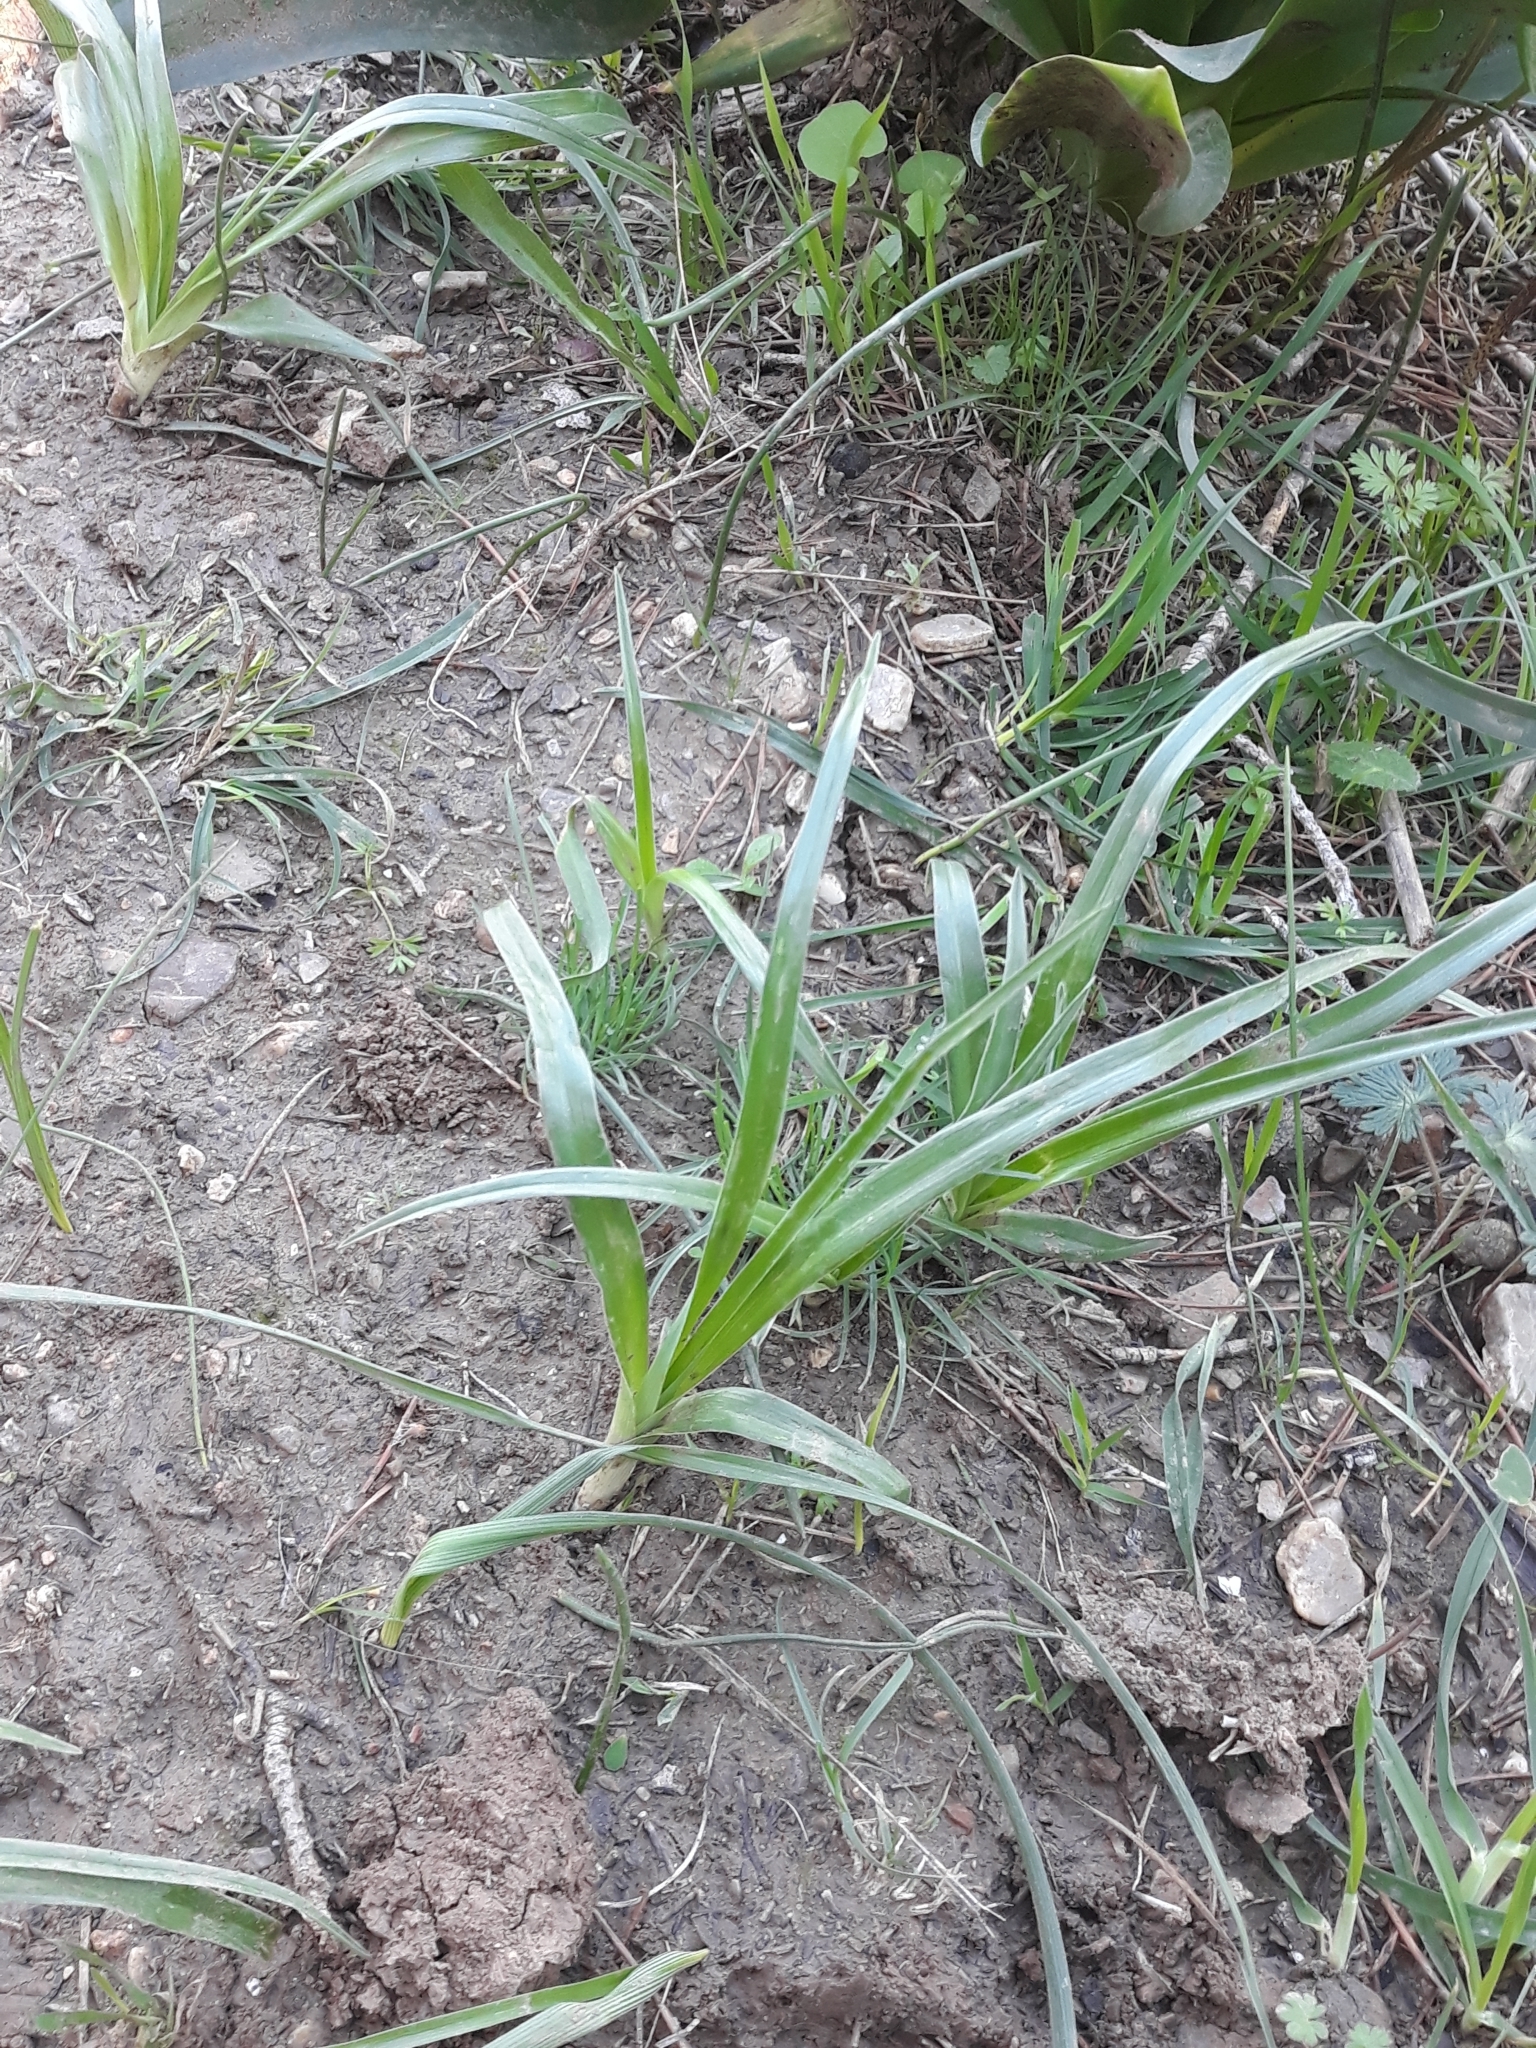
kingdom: Plantae
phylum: Tracheophyta
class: Liliopsida
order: Asparagales
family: Iridaceae
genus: Iris
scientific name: Iris planifolia
